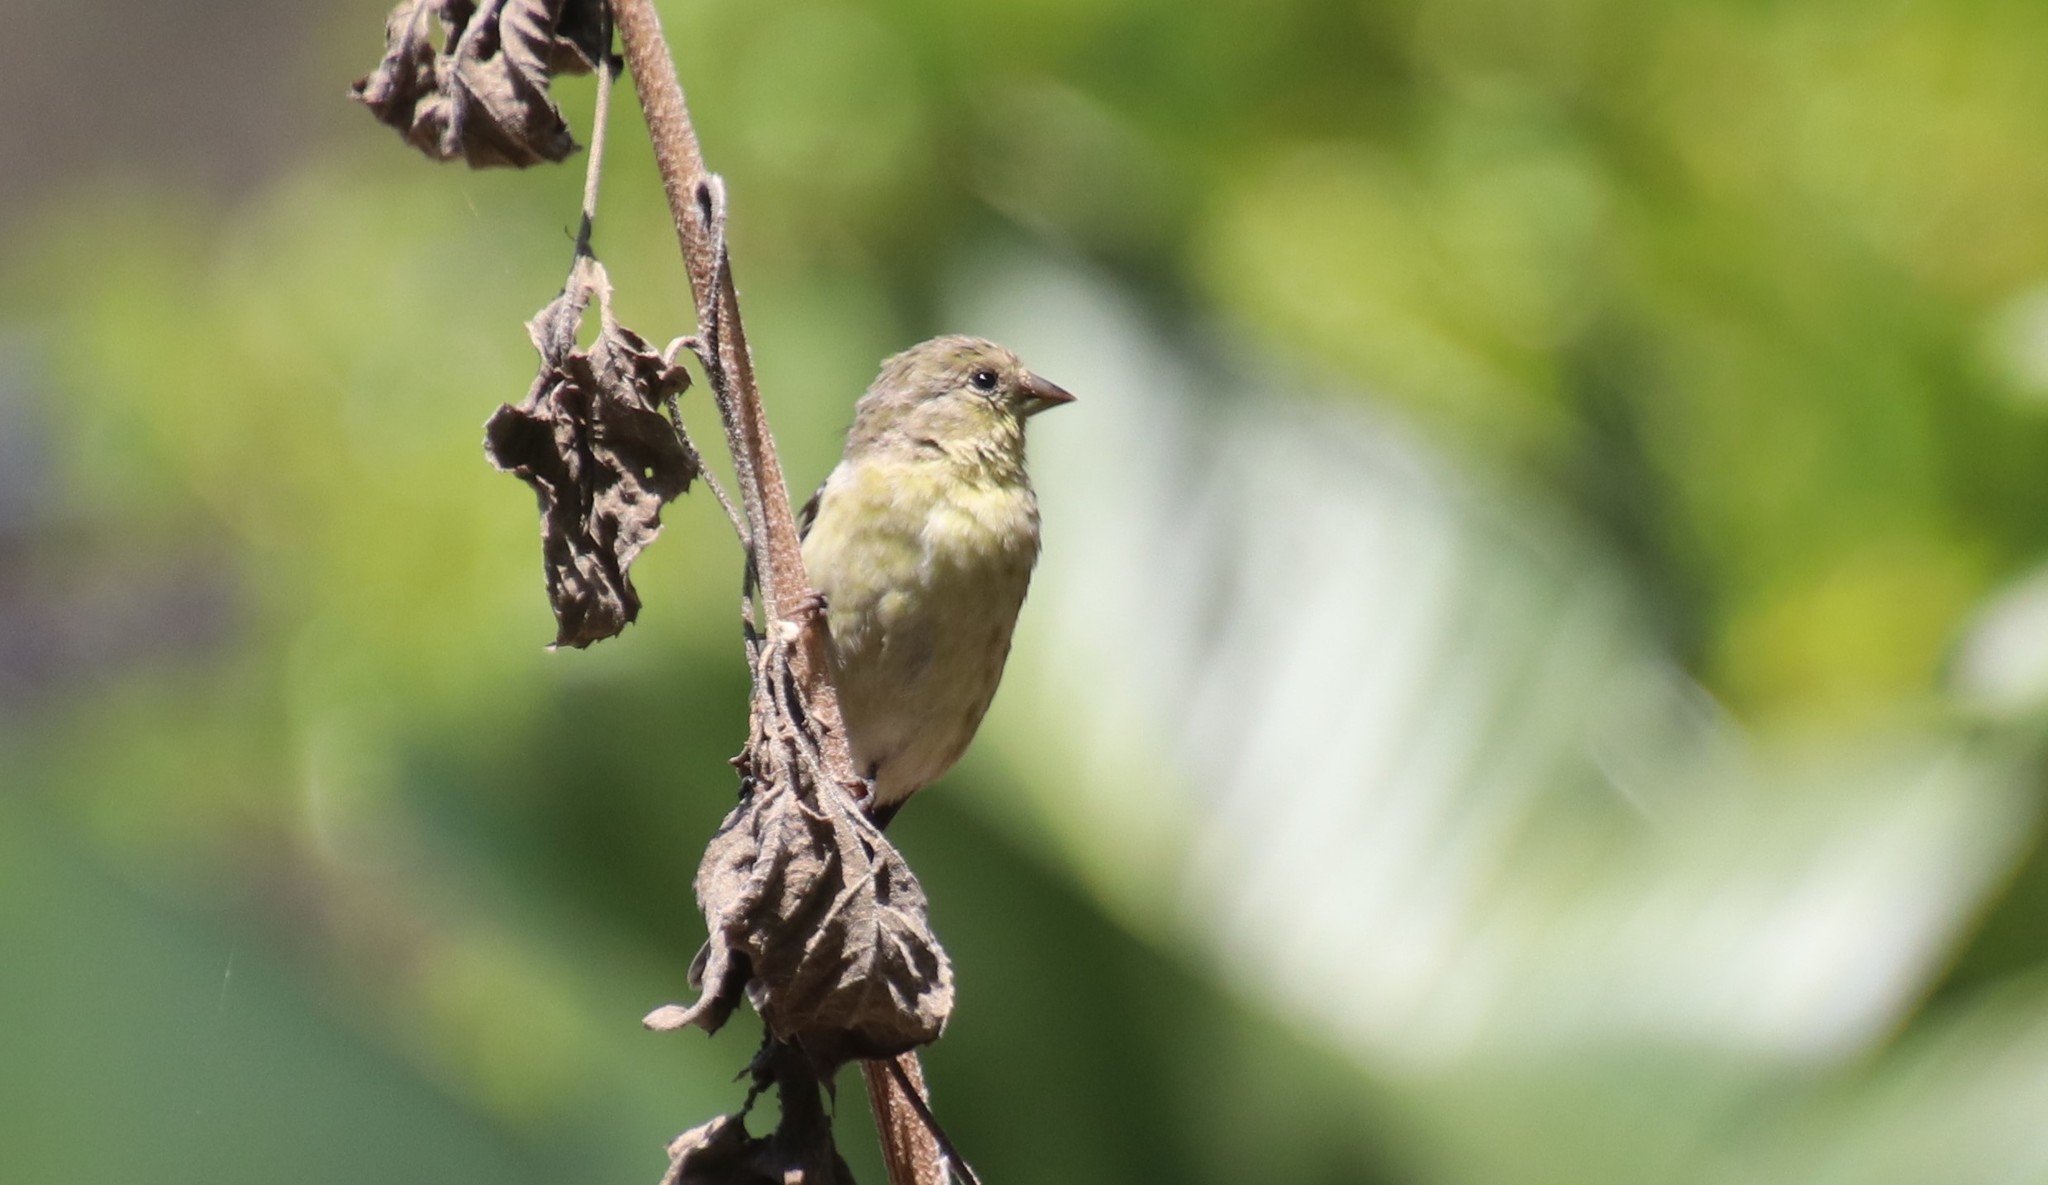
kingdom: Animalia
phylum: Chordata
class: Aves
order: Passeriformes
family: Fringillidae
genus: Spinus
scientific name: Spinus psaltria
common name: Lesser goldfinch
